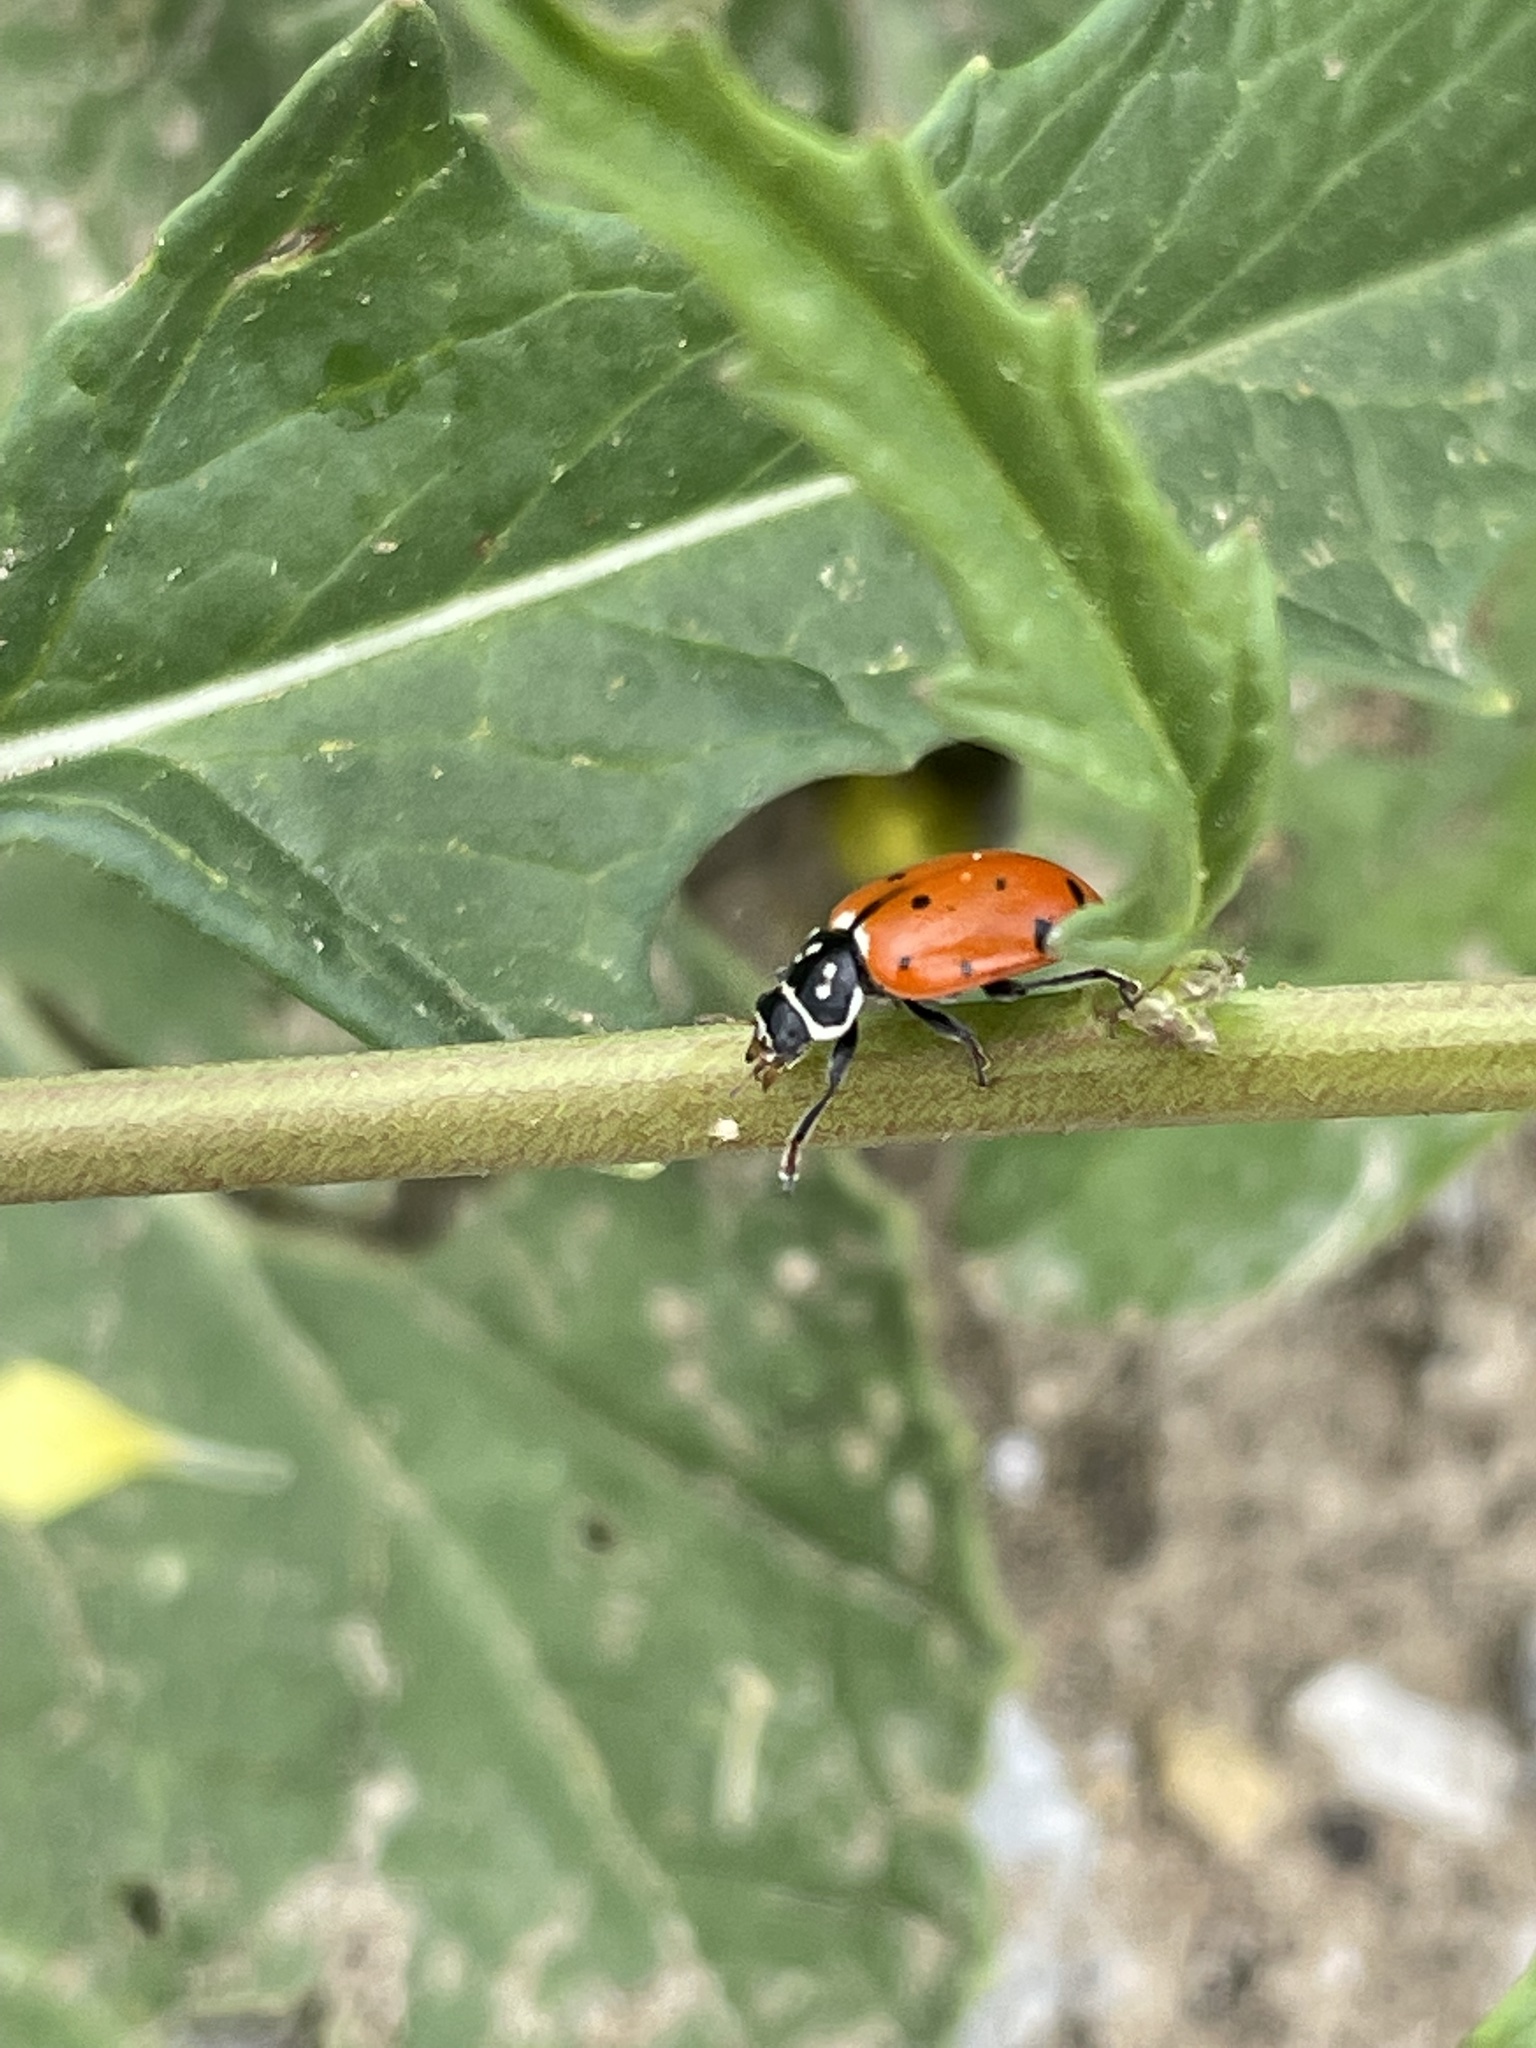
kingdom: Animalia
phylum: Arthropoda
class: Insecta
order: Coleoptera
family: Coccinellidae
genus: Hippodamia
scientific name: Hippodamia convergens
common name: Convergent lady beetle
